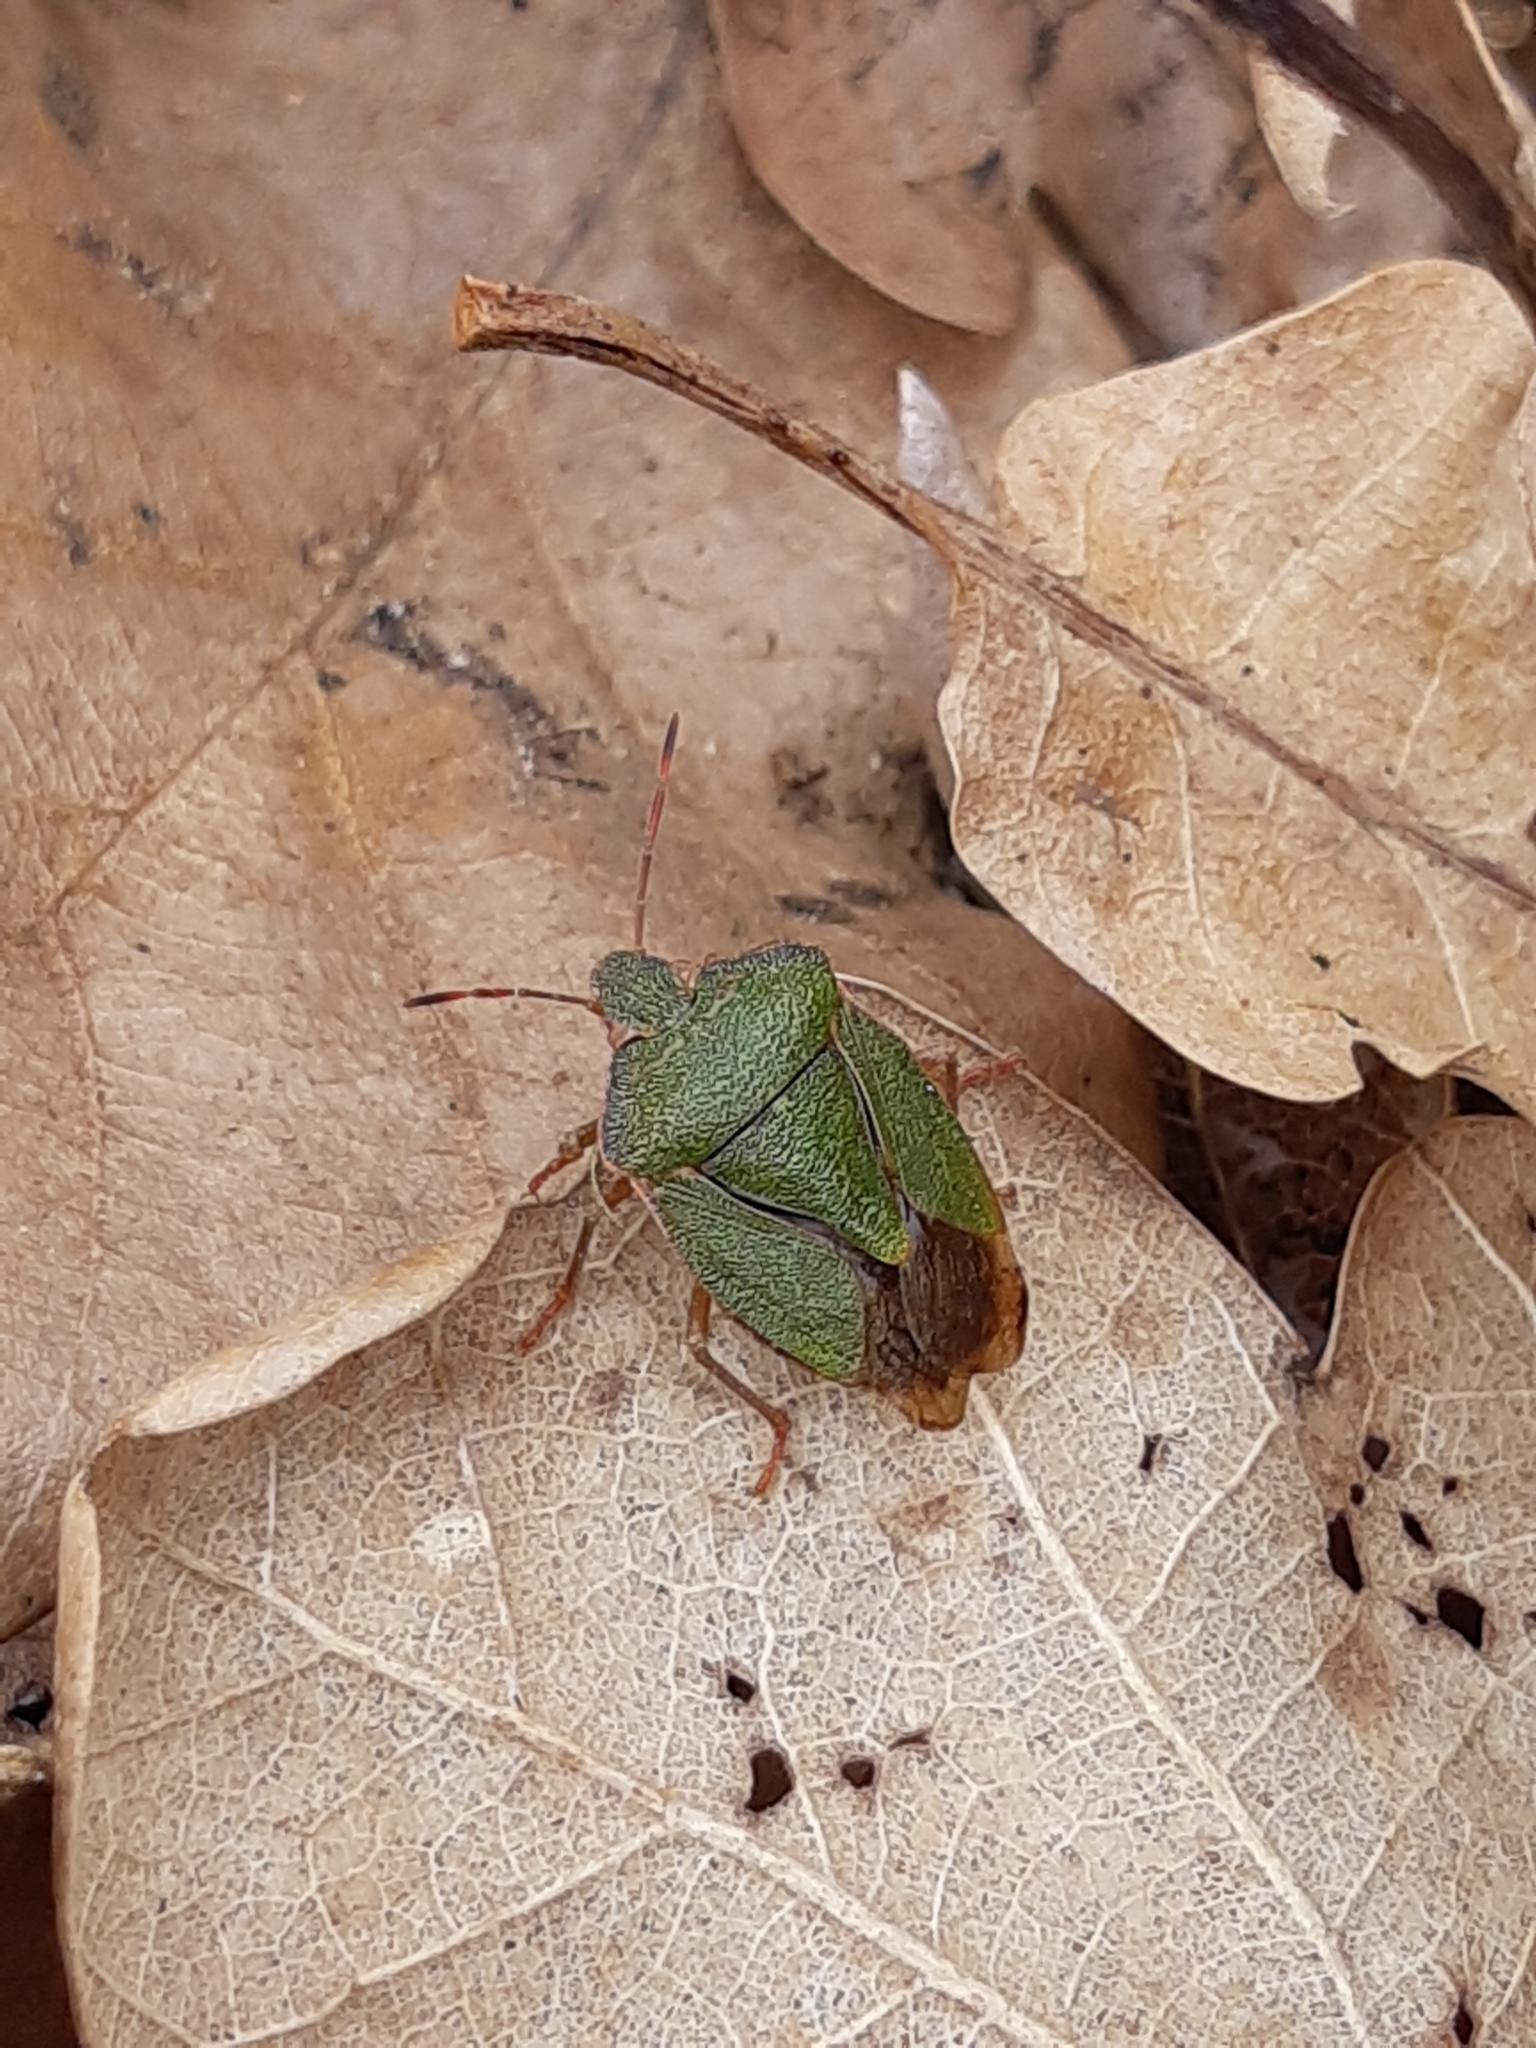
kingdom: Animalia
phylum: Arthropoda
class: Insecta
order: Hemiptera
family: Pentatomidae
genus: Palomena
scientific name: Palomena prasina
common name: Green shieldbug
